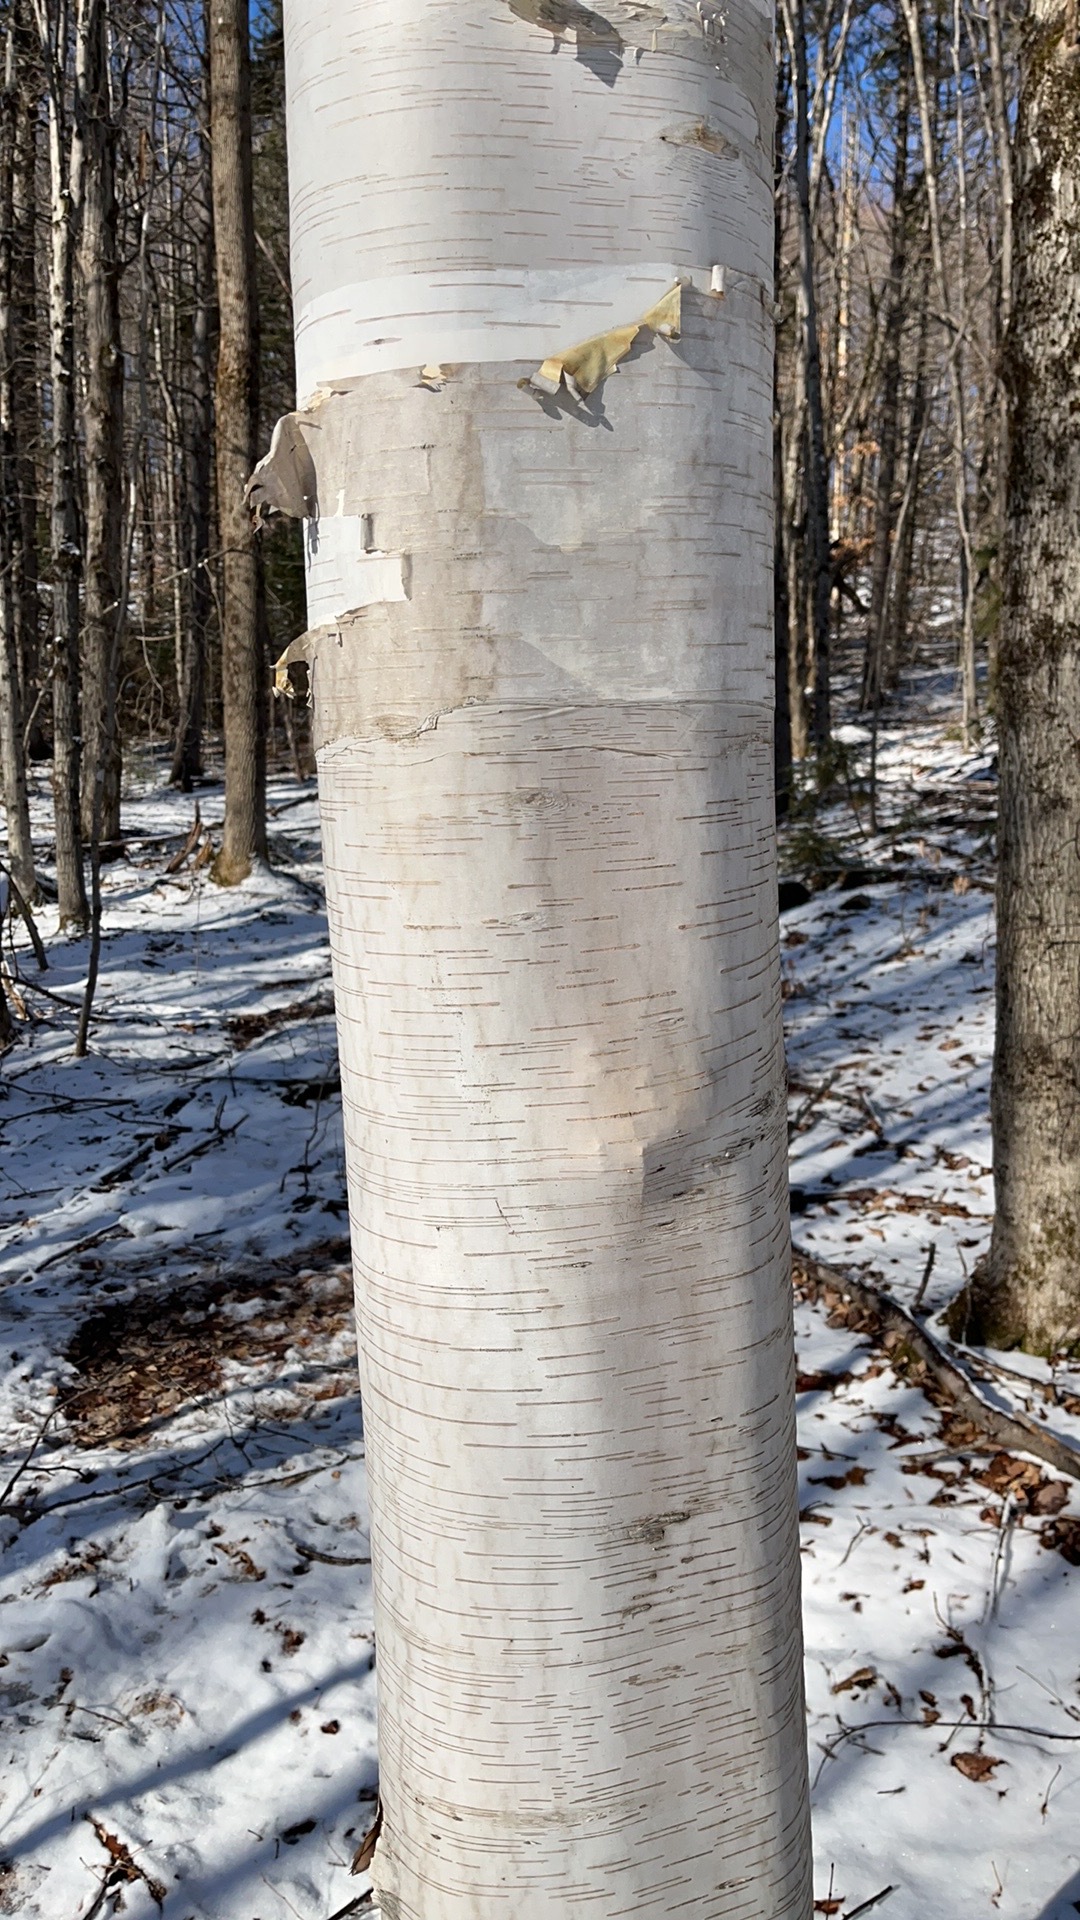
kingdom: Plantae
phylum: Tracheophyta
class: Magnoliopsida
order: Fagales
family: Betulaceae
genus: Betula
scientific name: Betula papyrifera
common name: Paper birch
